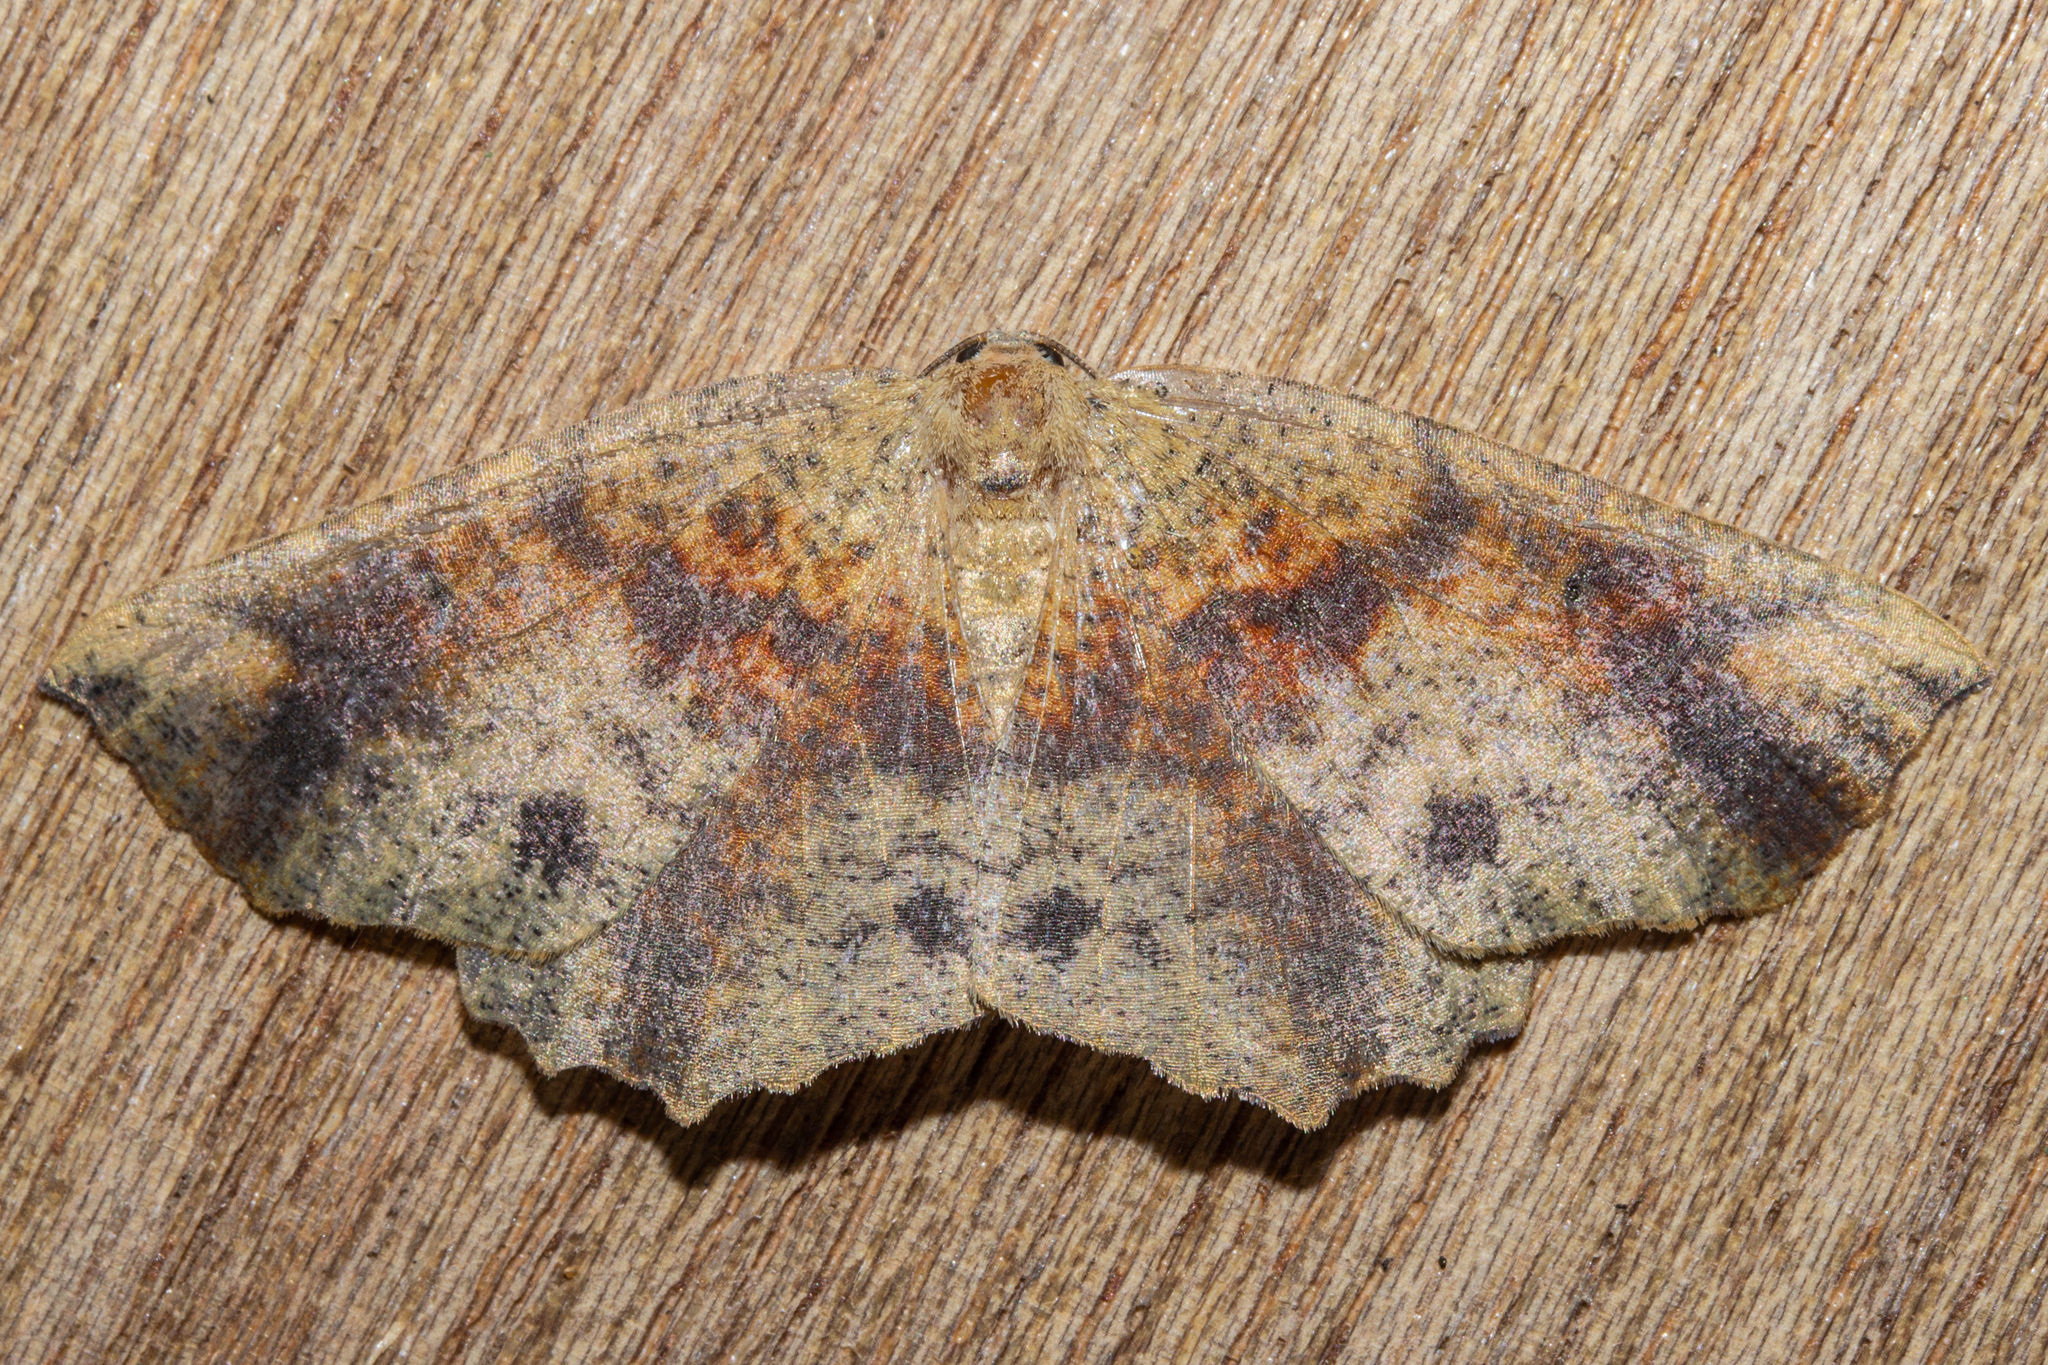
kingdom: Animalia
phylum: Arthropoda
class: Insecta
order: Lepidoptera
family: Geometridae
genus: Xyridacma
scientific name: Xyridacma ustaria
